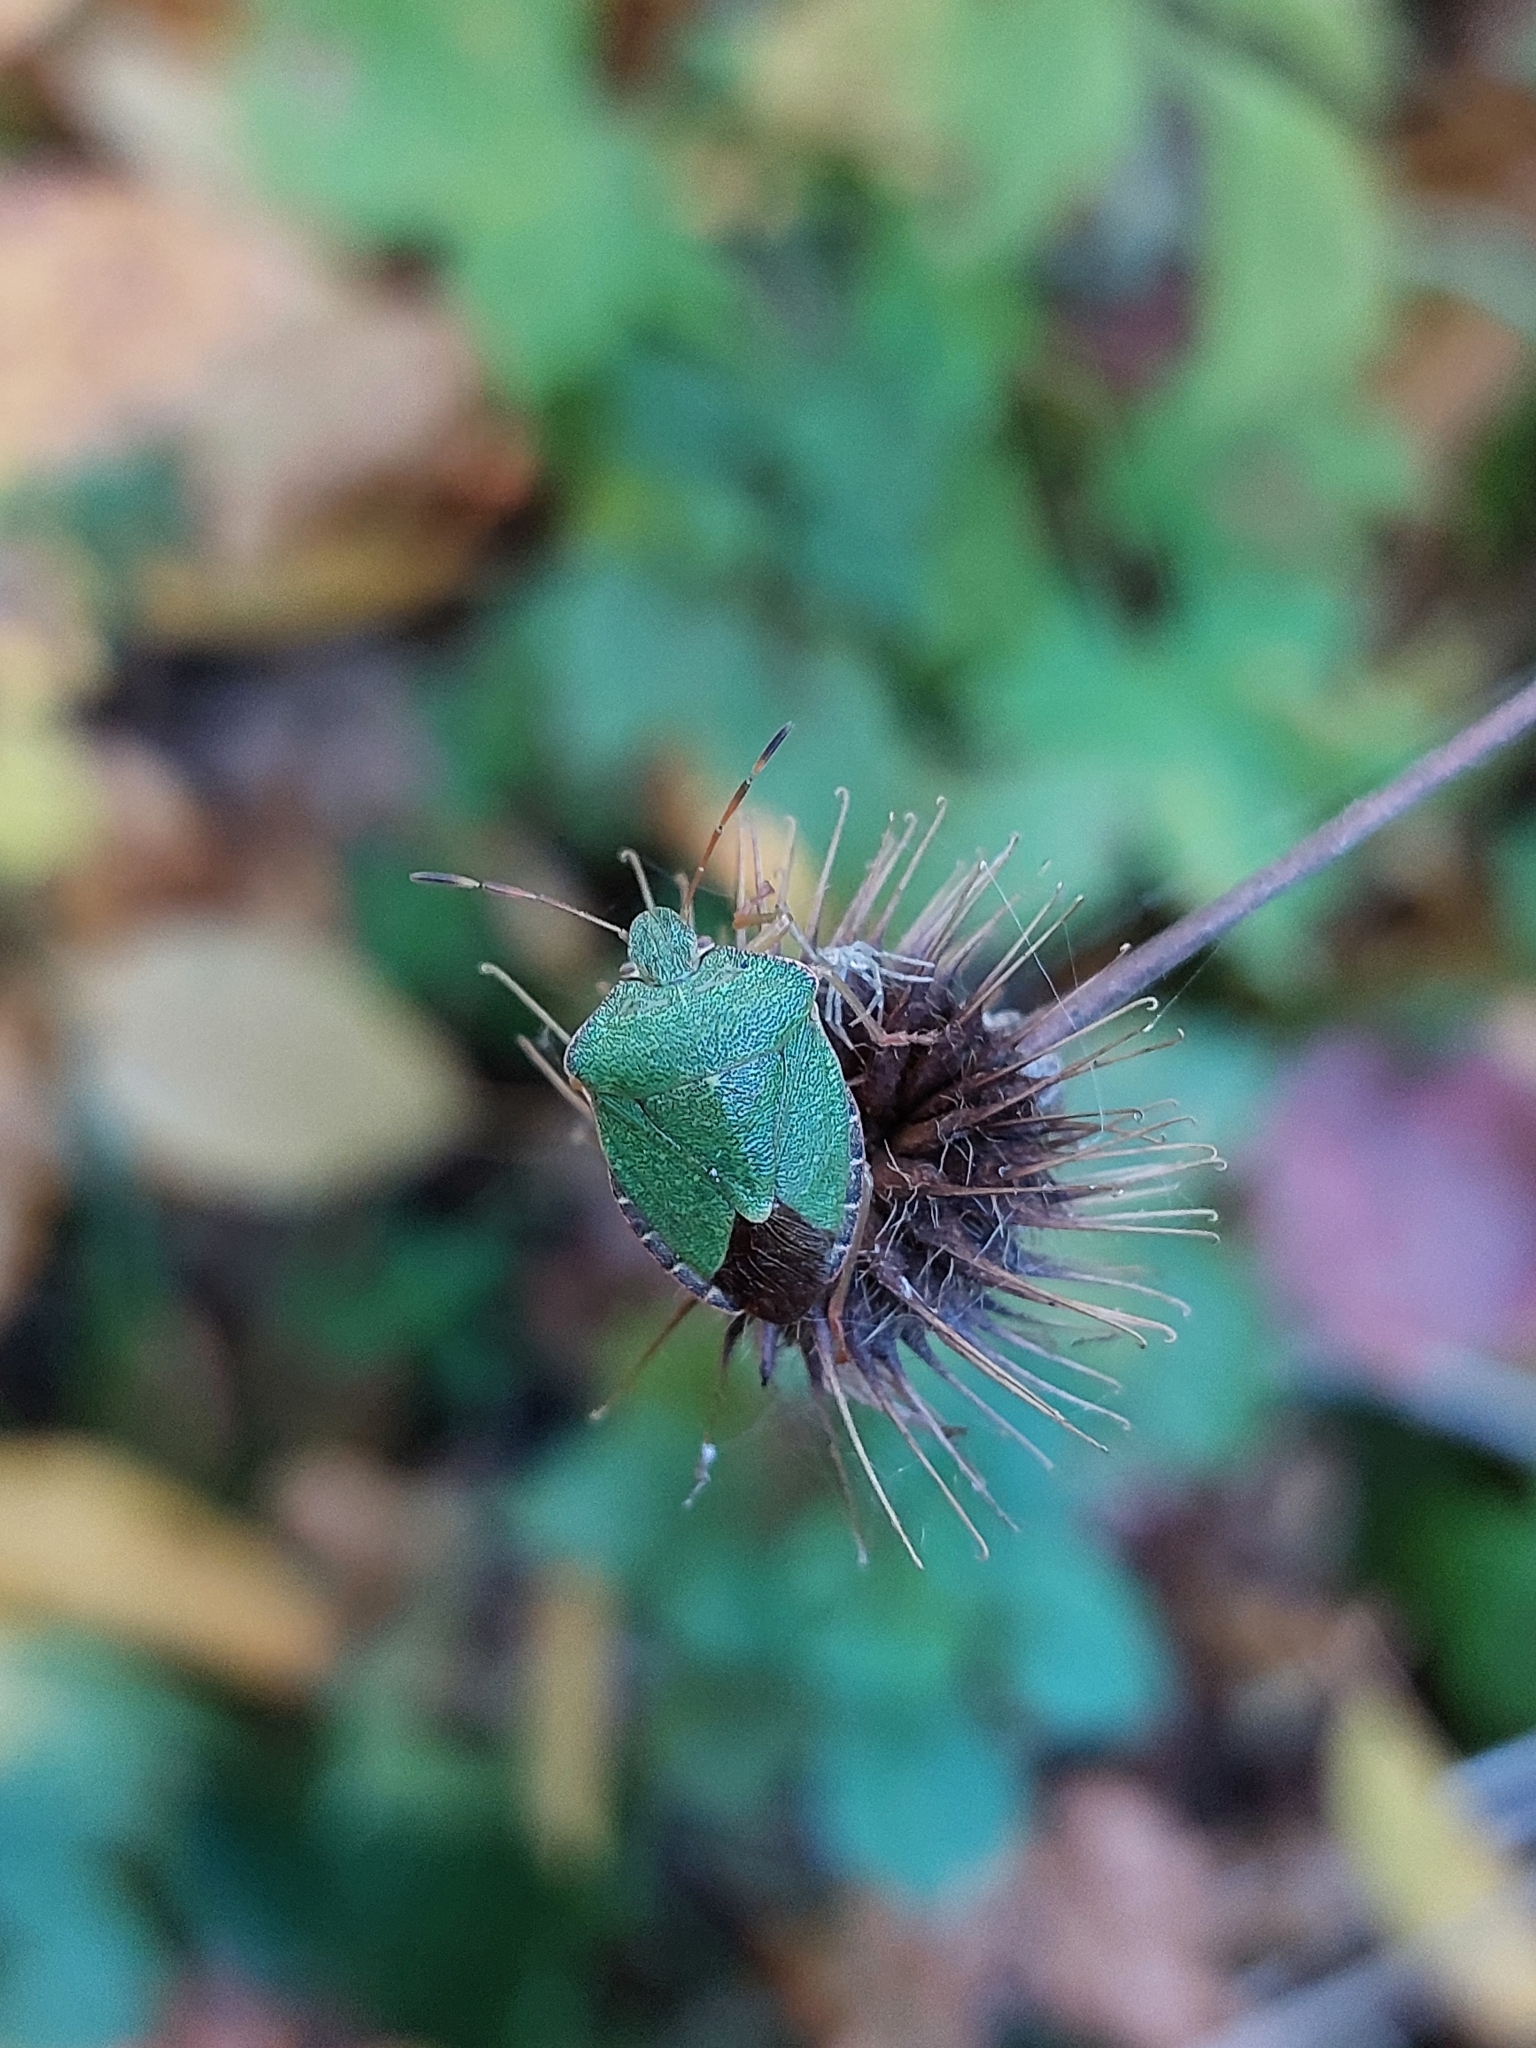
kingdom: Animalia
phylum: Arthropoda
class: Insecta
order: Hemiptera
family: Pentatomidae
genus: Palomena
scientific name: Palomena prasina
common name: Green shieldbug
